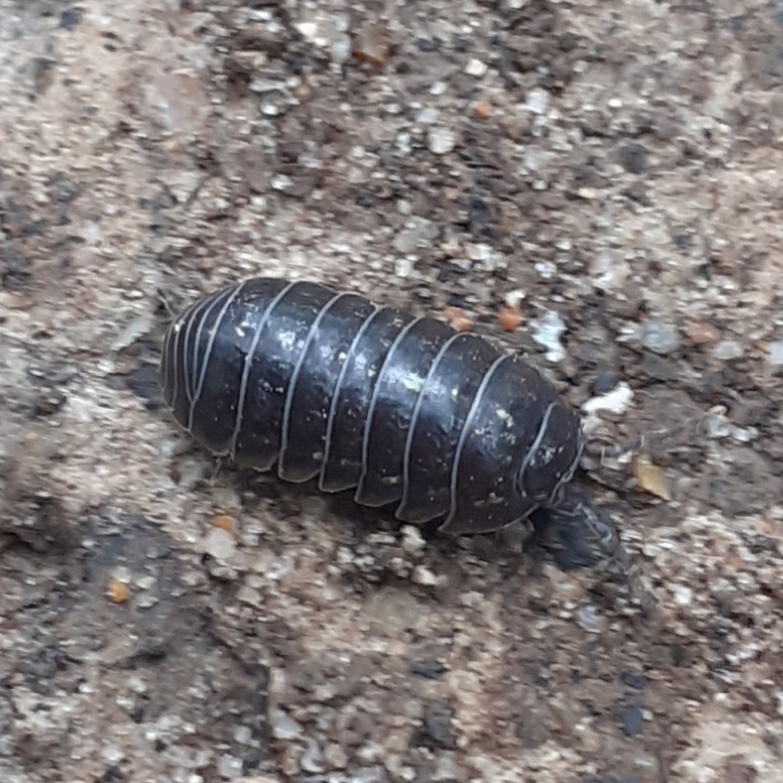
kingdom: Animalia
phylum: Arthropoda
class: Malacostraca
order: Isopoda
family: Armadillidiidae
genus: Armadillidium
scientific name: Armadillidium vulgare
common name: Common pill woodlouse
